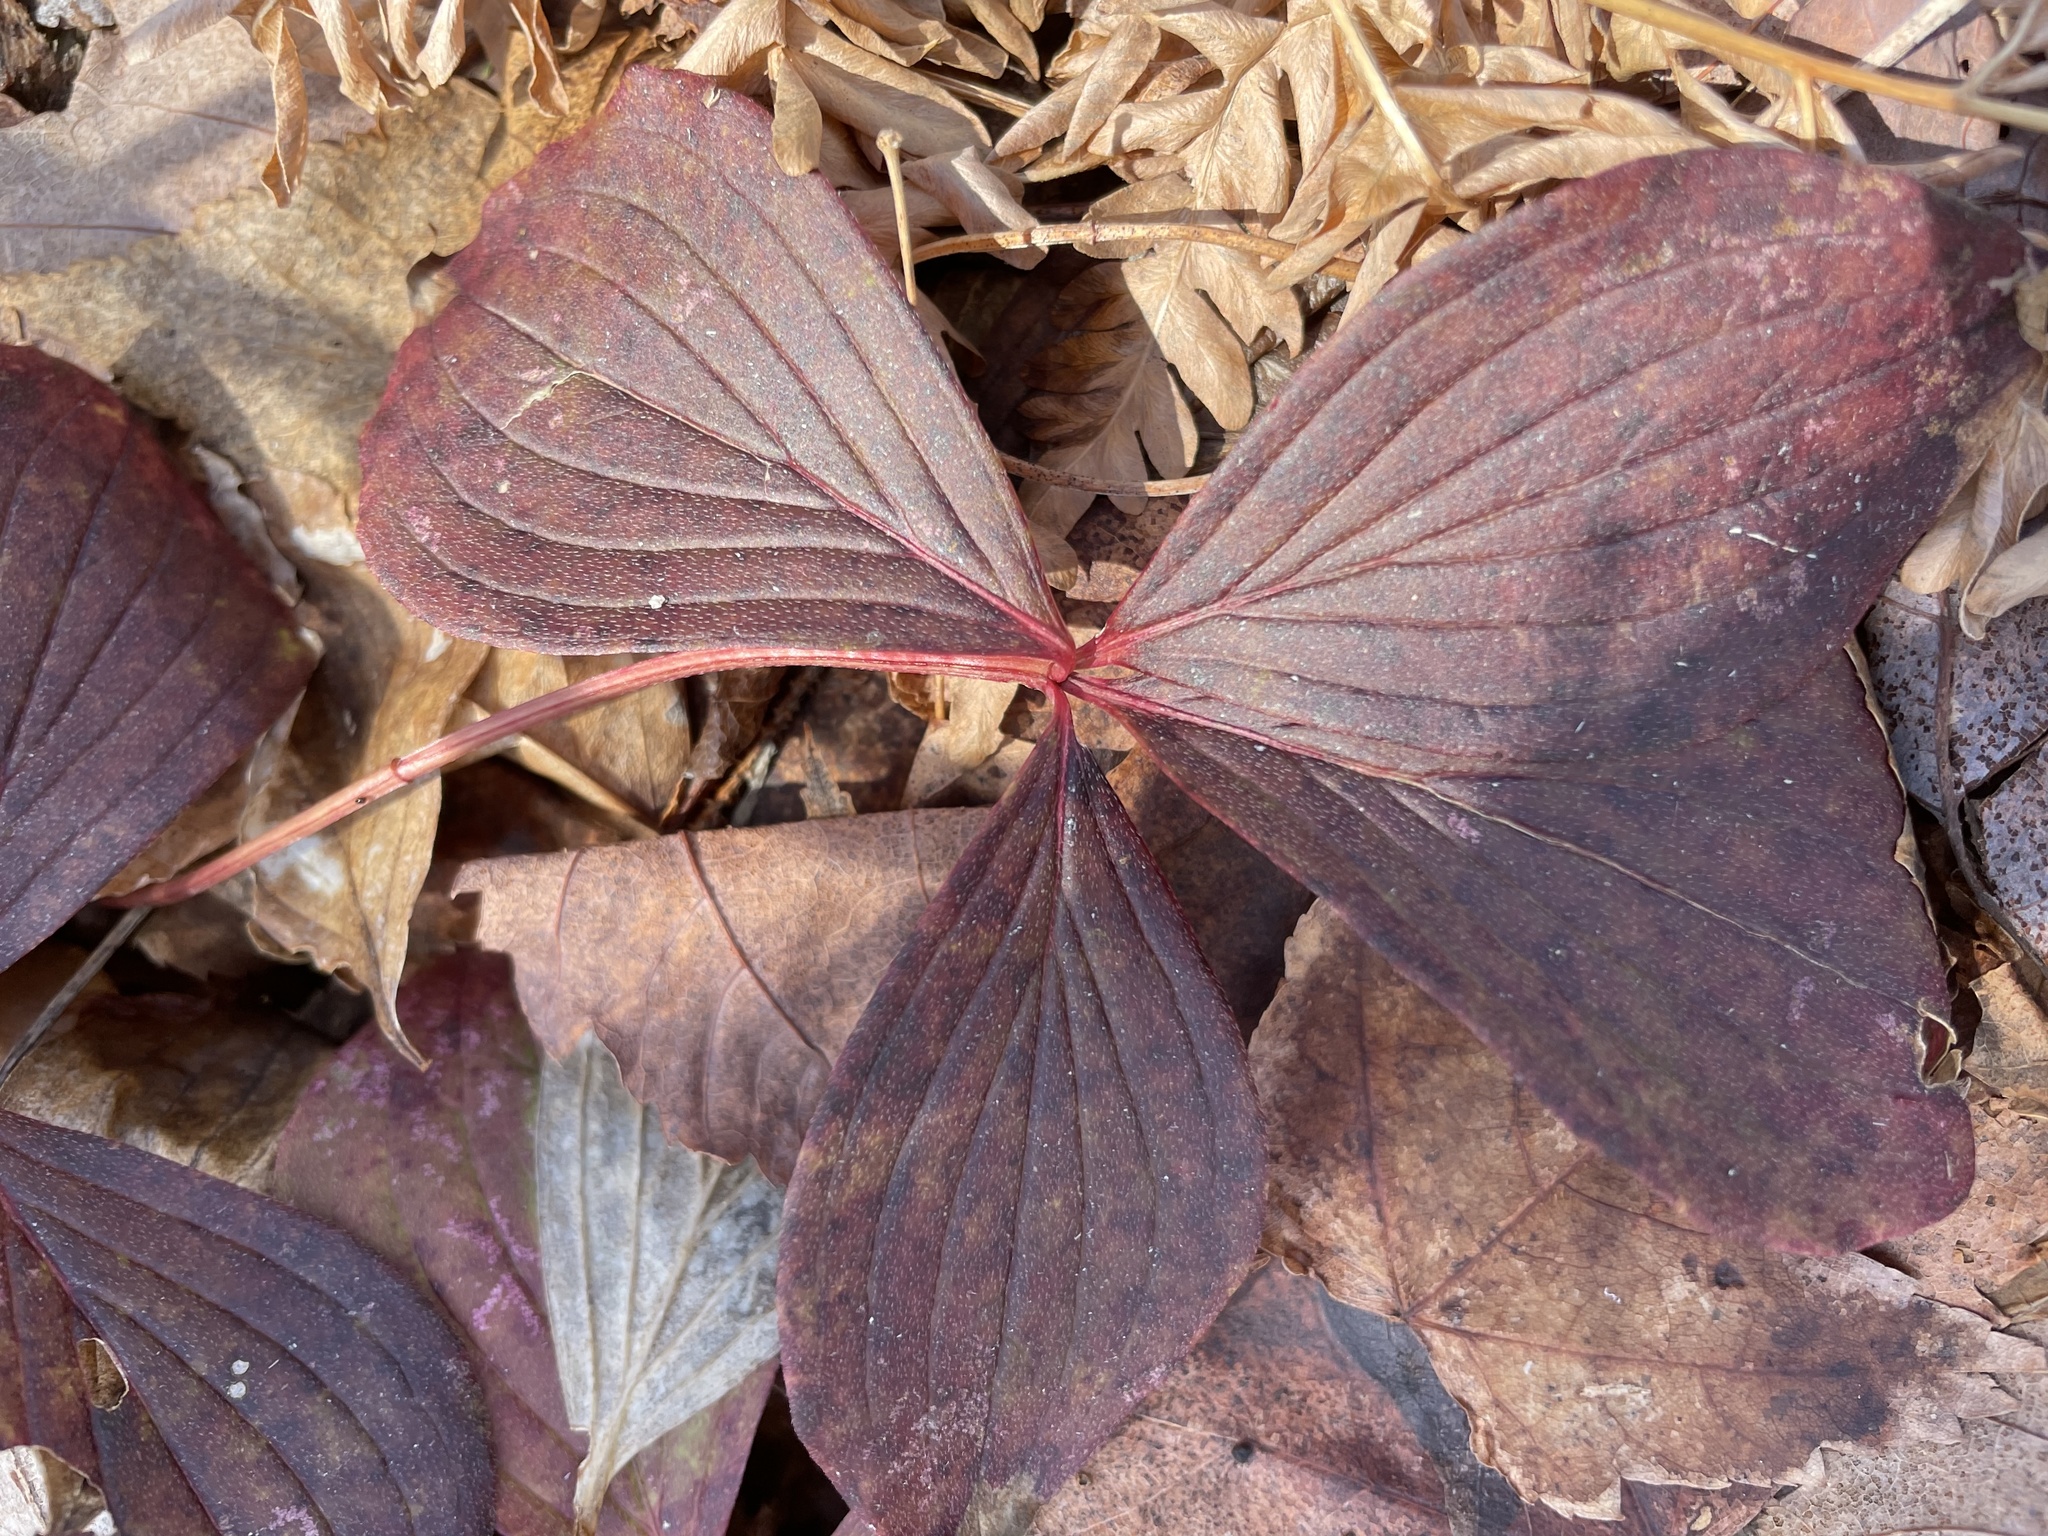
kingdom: Plantae
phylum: Tracheophyta
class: Magnoliopsida
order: Cornales
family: Cornaceae
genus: Cornus
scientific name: Cornus canadensis
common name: Creeping dogwood
